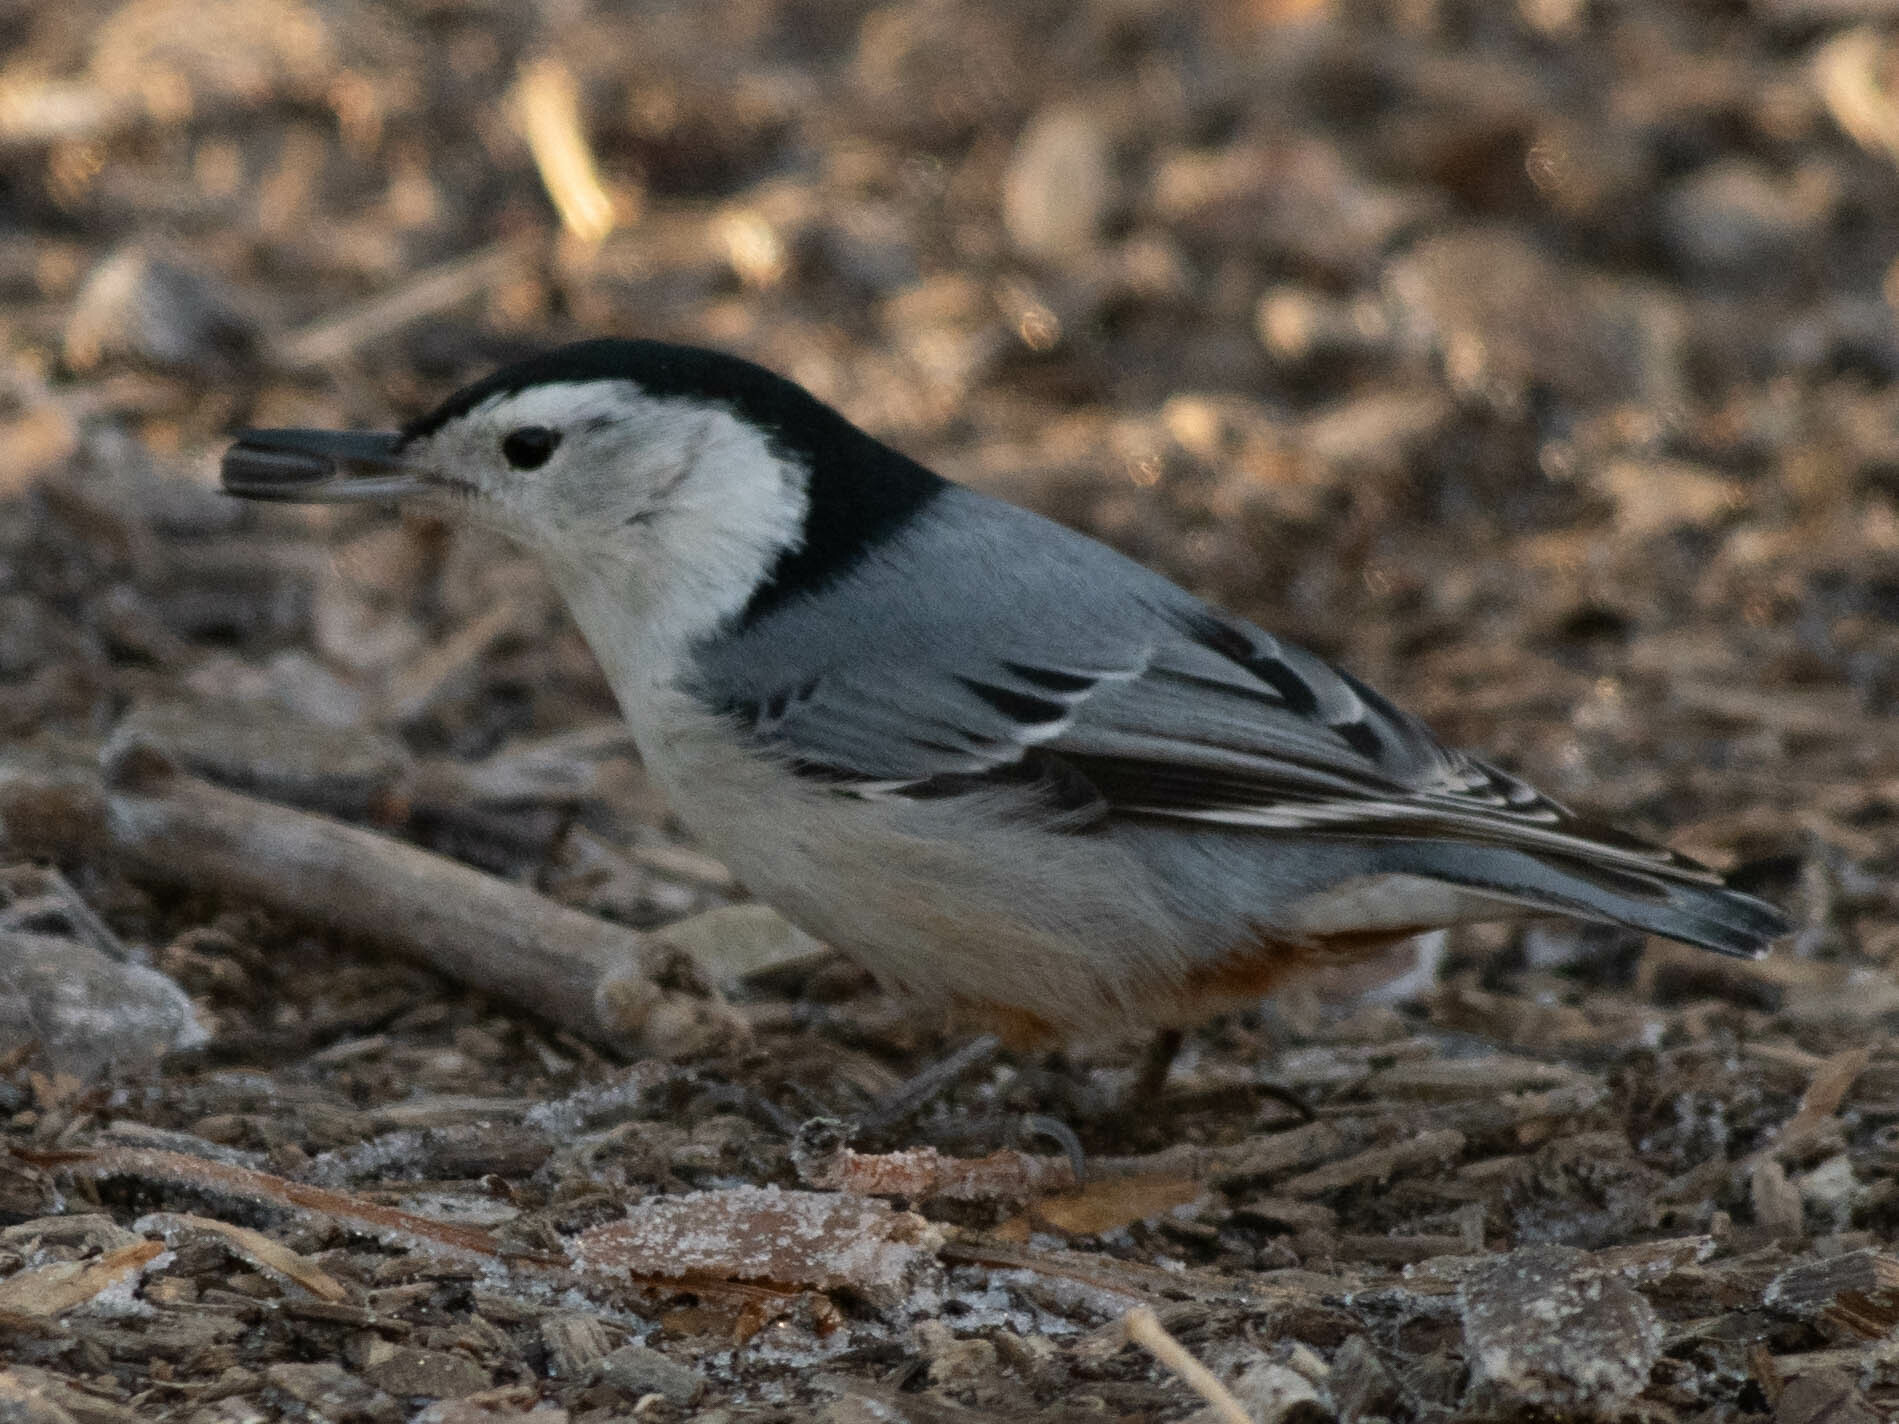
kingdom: Animalia
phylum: Chordata
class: Aves
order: Passeriformes
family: Sittidae
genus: Sitta
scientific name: Sitta carolinensis
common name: White-breasted nuthatch
